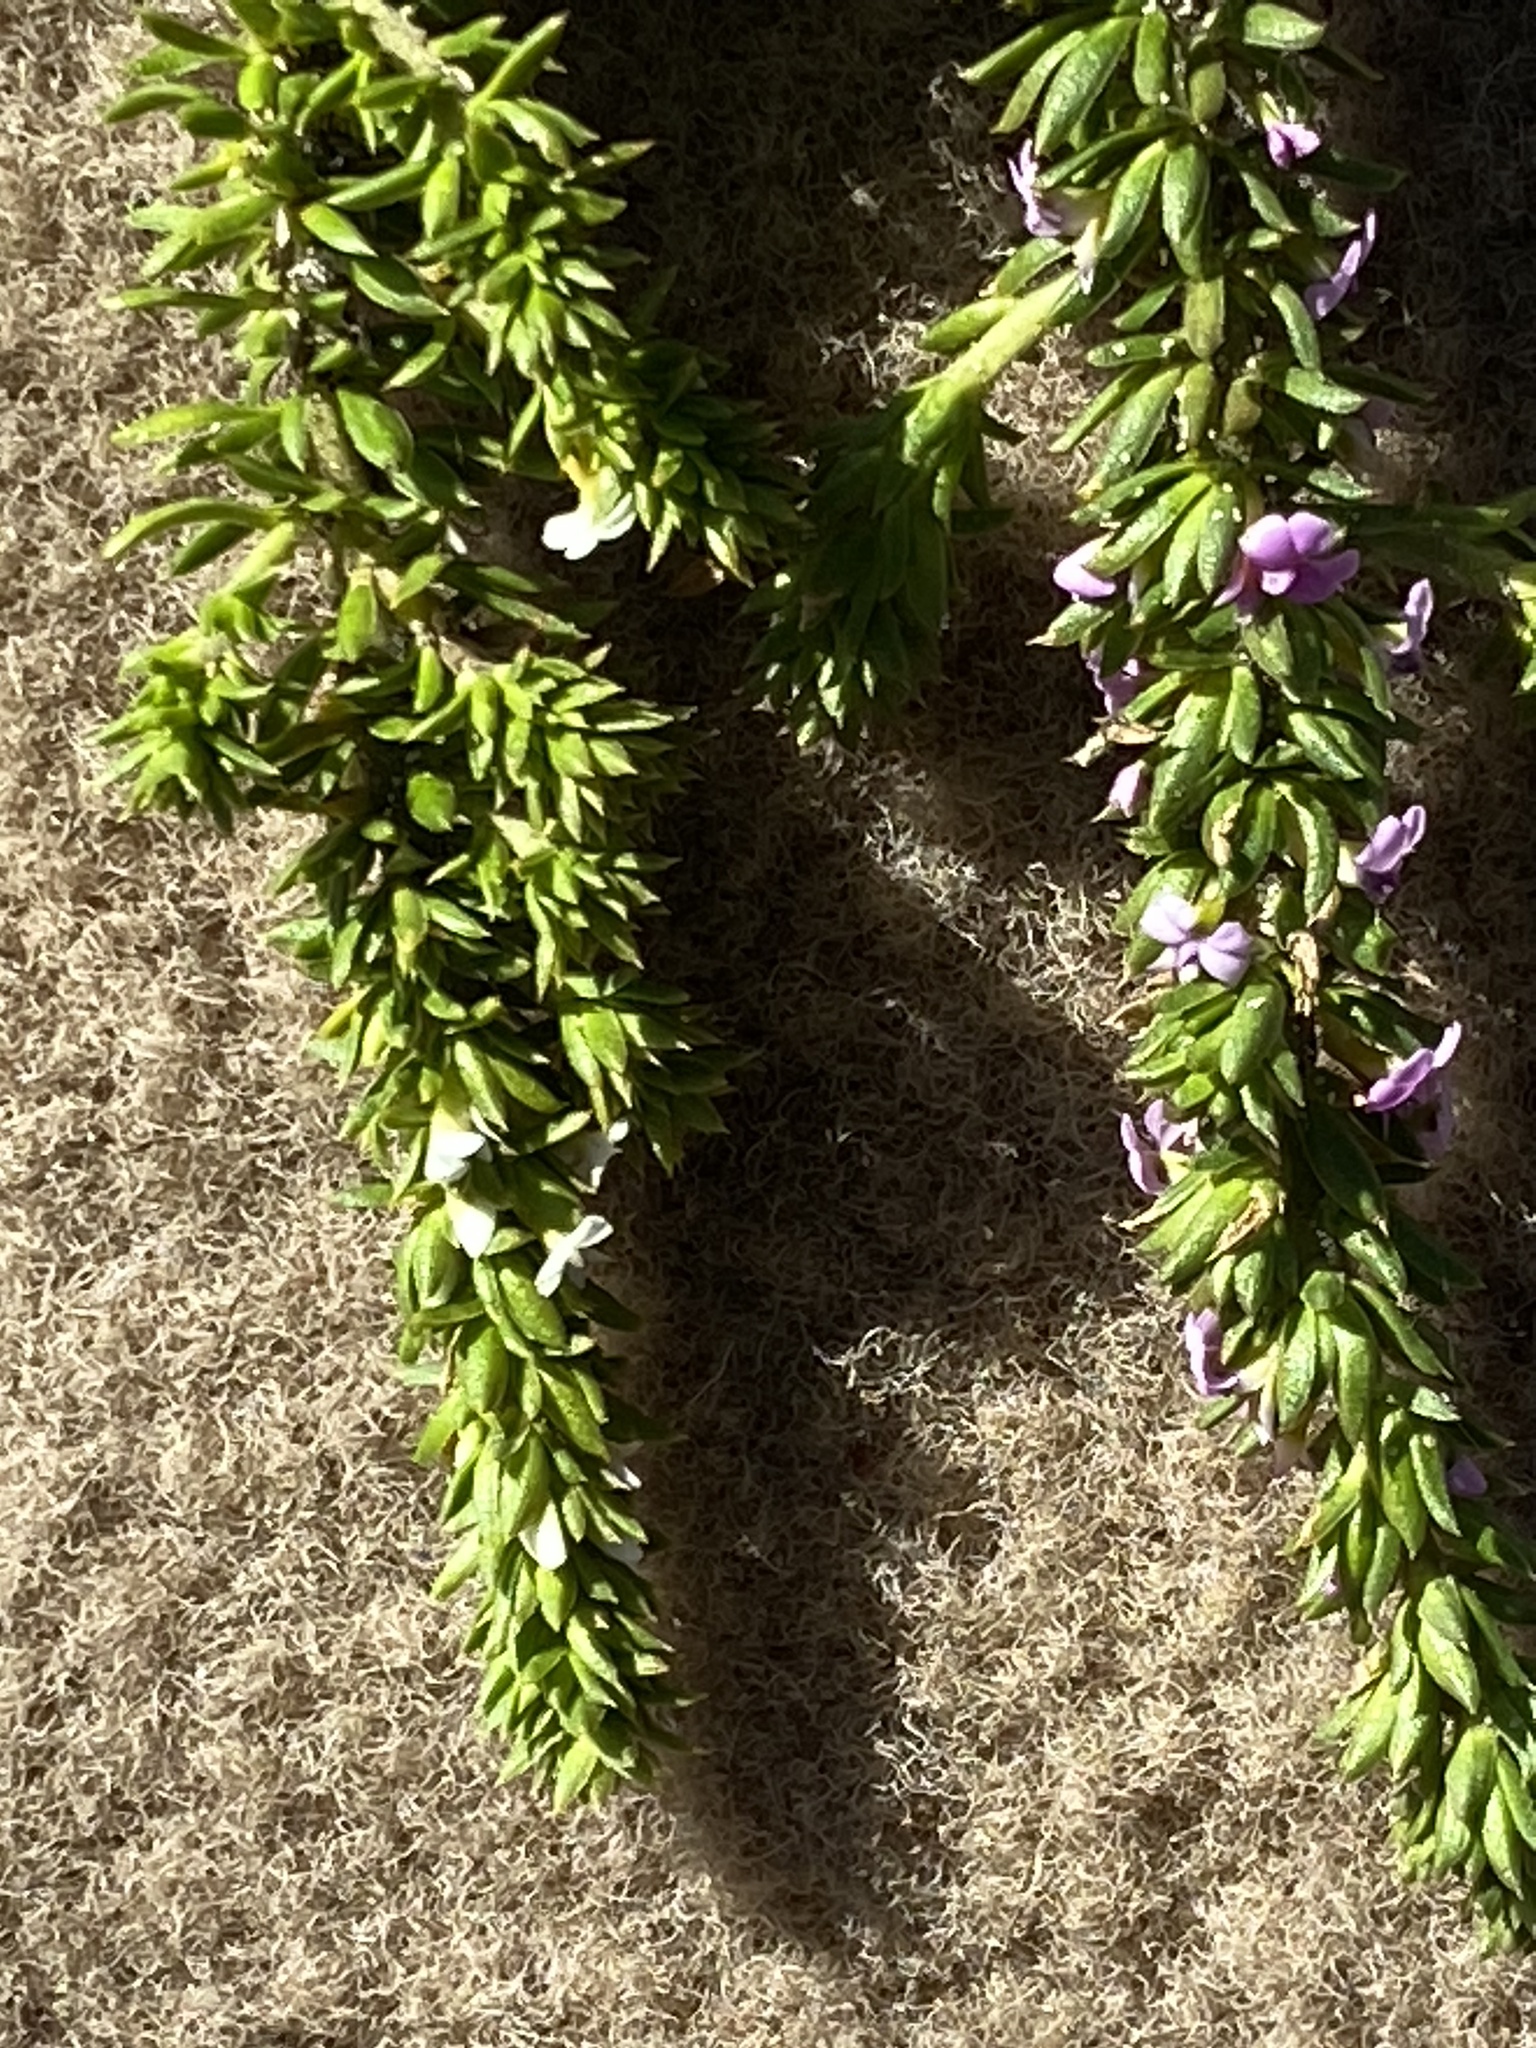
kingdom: Plantae
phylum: Tracheophyta
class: Magnoliopsida
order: Fabales
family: Polygalaceae
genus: Muraltia
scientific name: Muraltia satureioides
